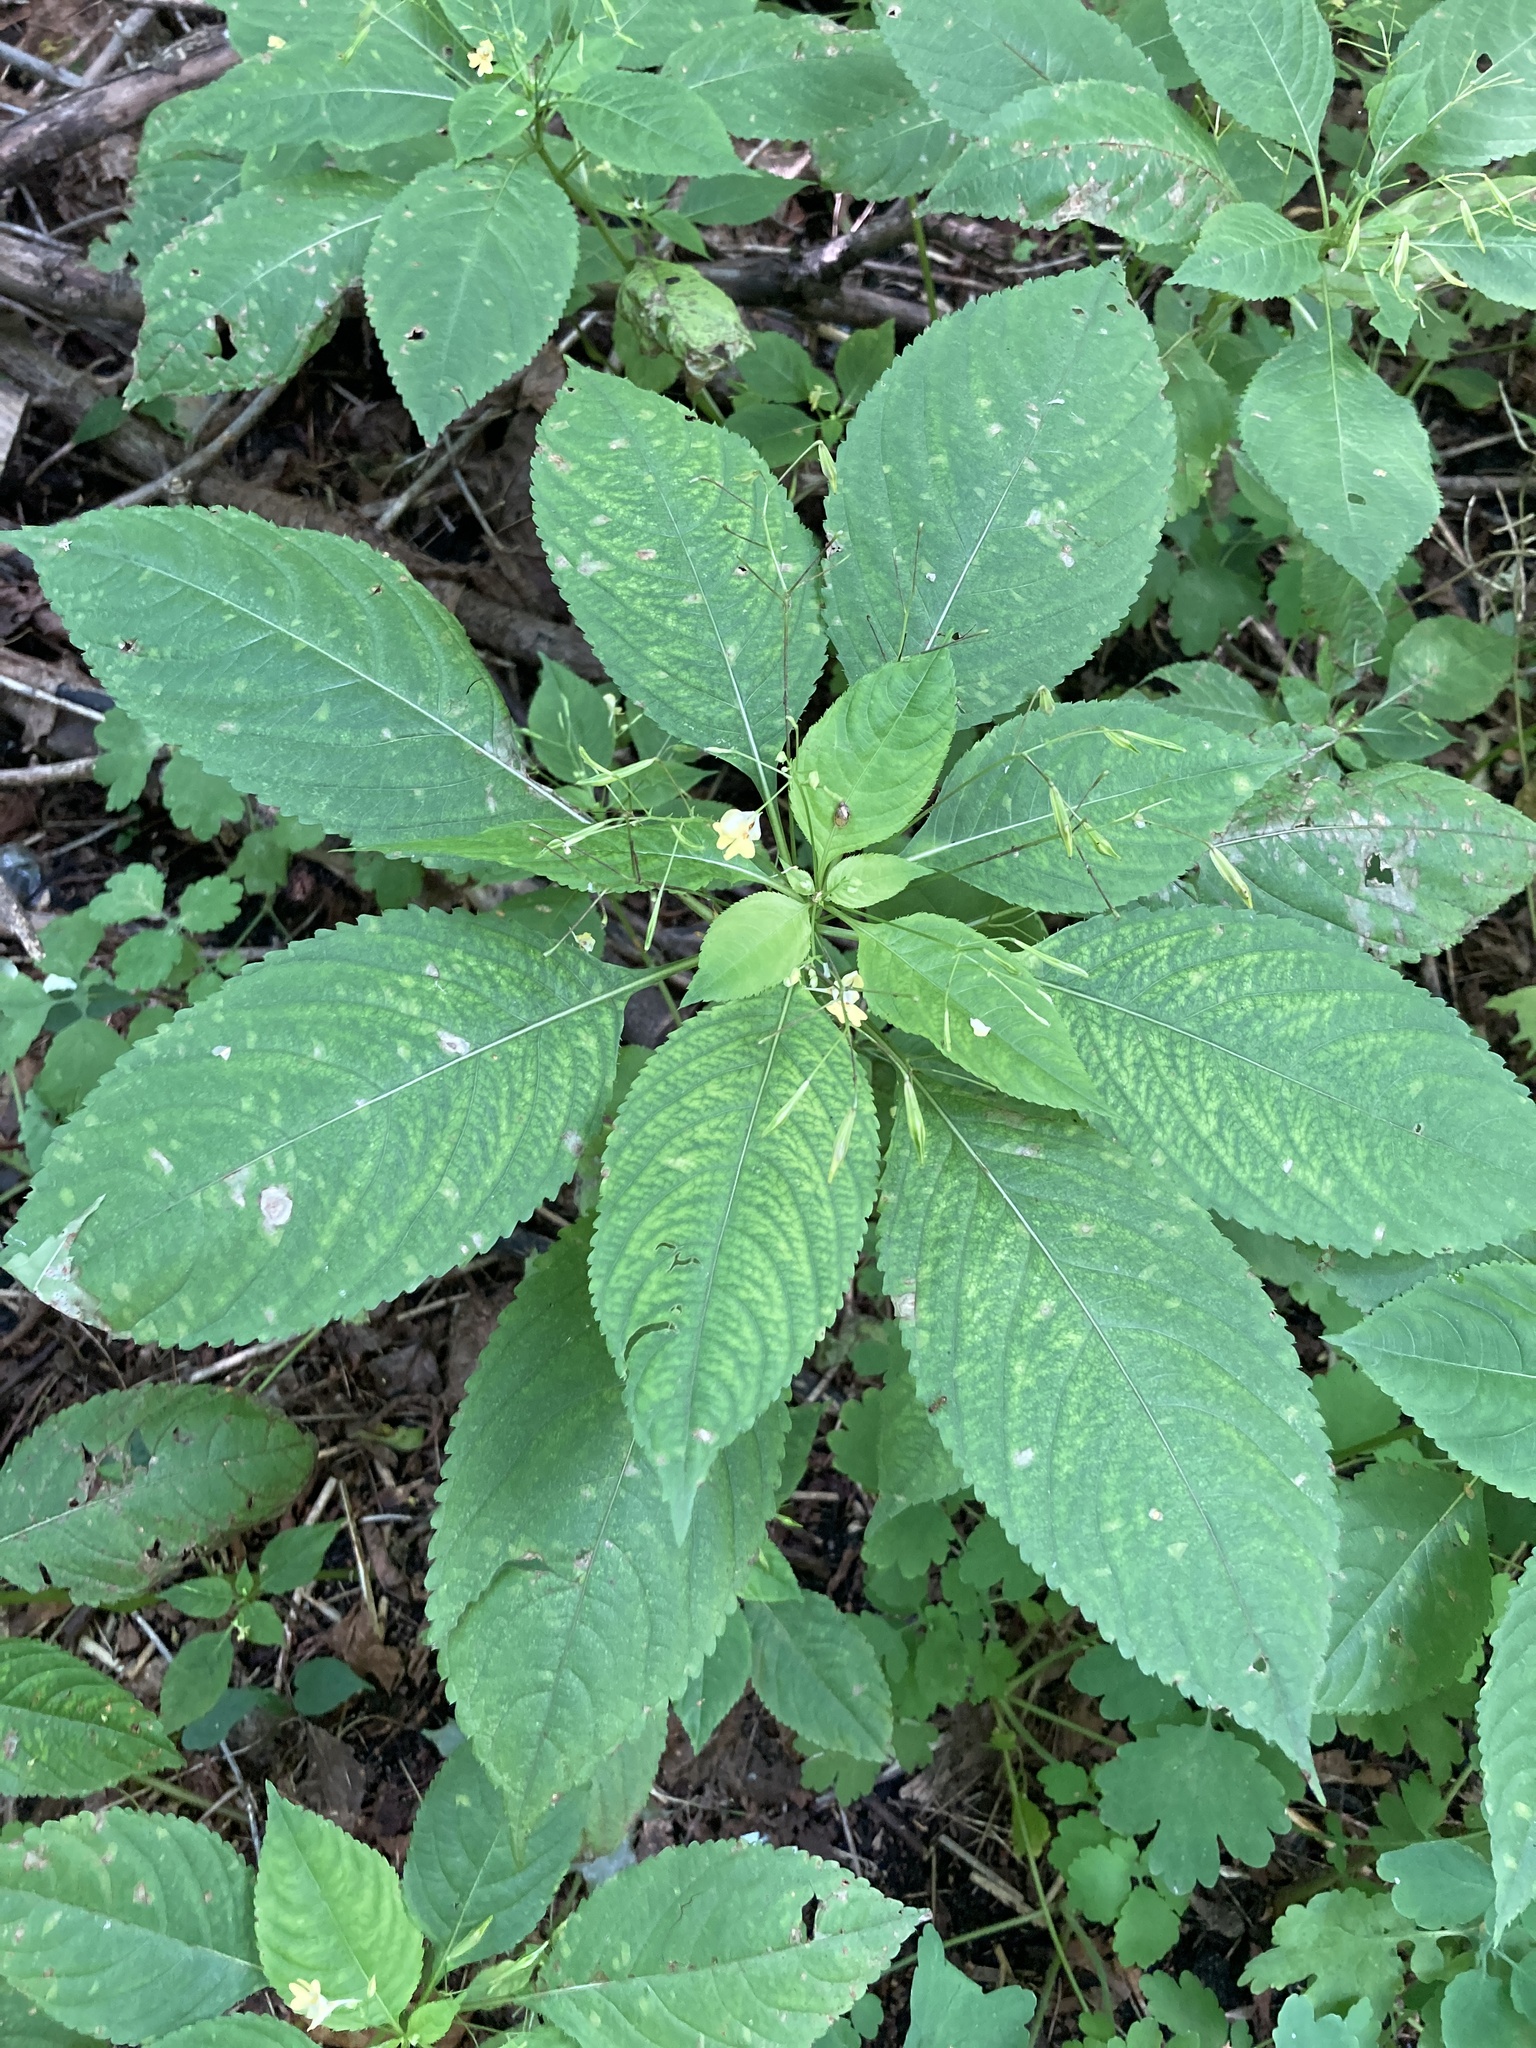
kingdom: Plantae
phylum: Tracheophyta
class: Magnoliopsida
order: Ericales
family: Balsaminaceae
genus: Impatiens
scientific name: Impatiens parviflora
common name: Small balsam
